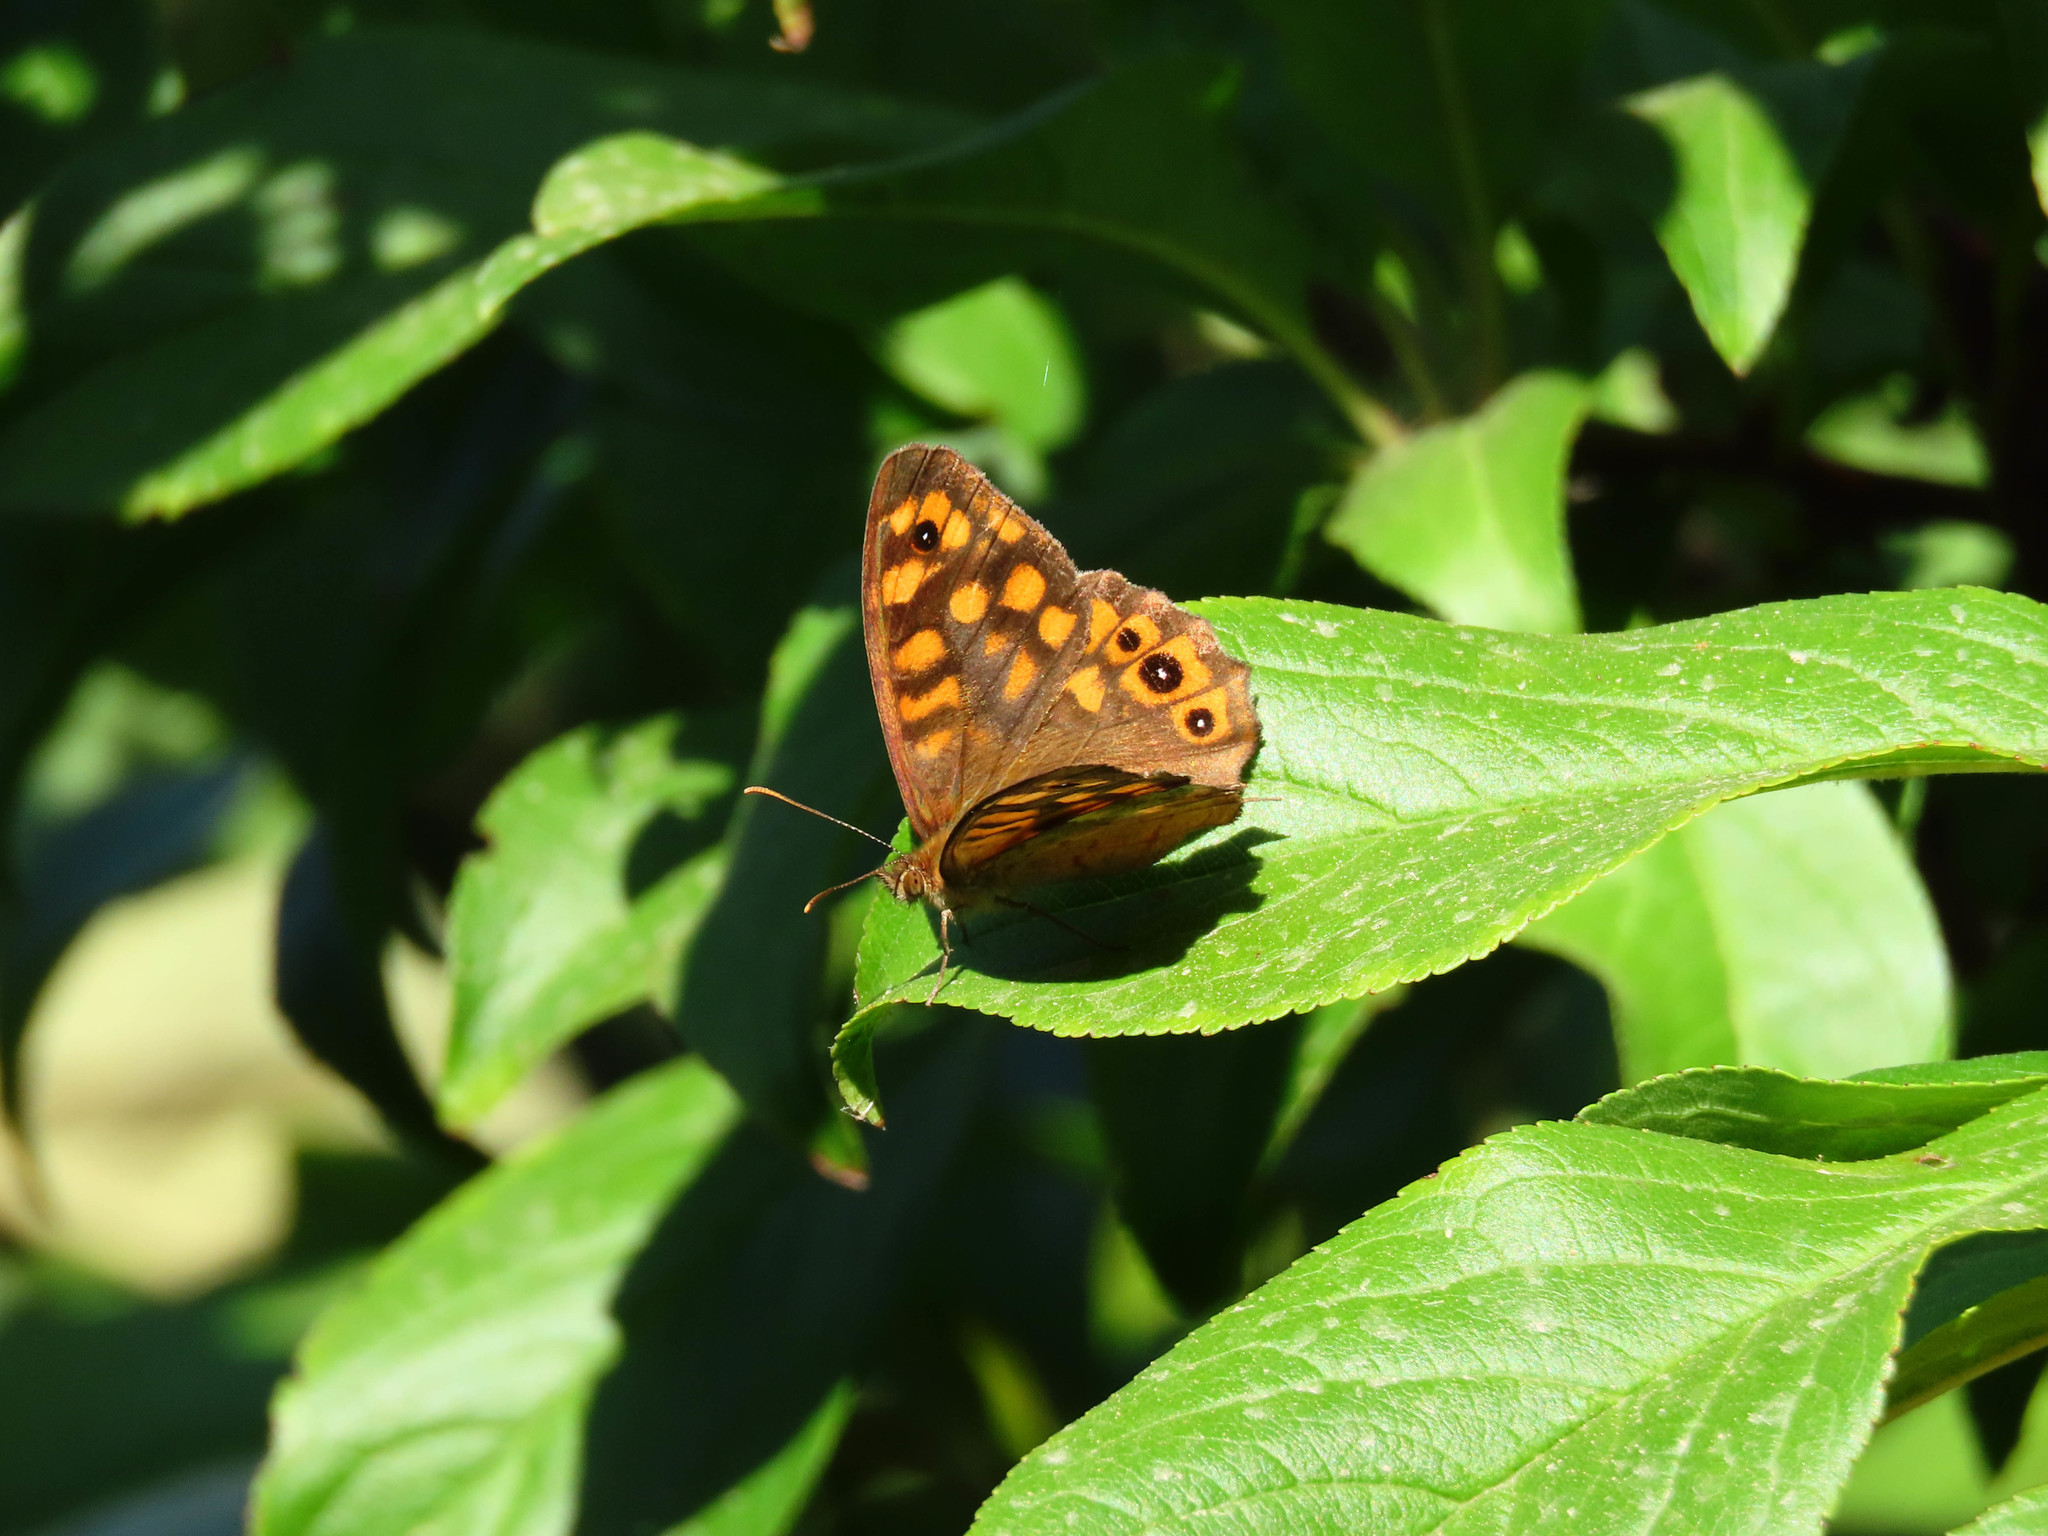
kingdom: Animalia
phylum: Arthropoda
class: Insecta
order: Lepidoptera
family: Nymphalidae
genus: Pararge
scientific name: Pararge aegeria
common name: Speckled wood
